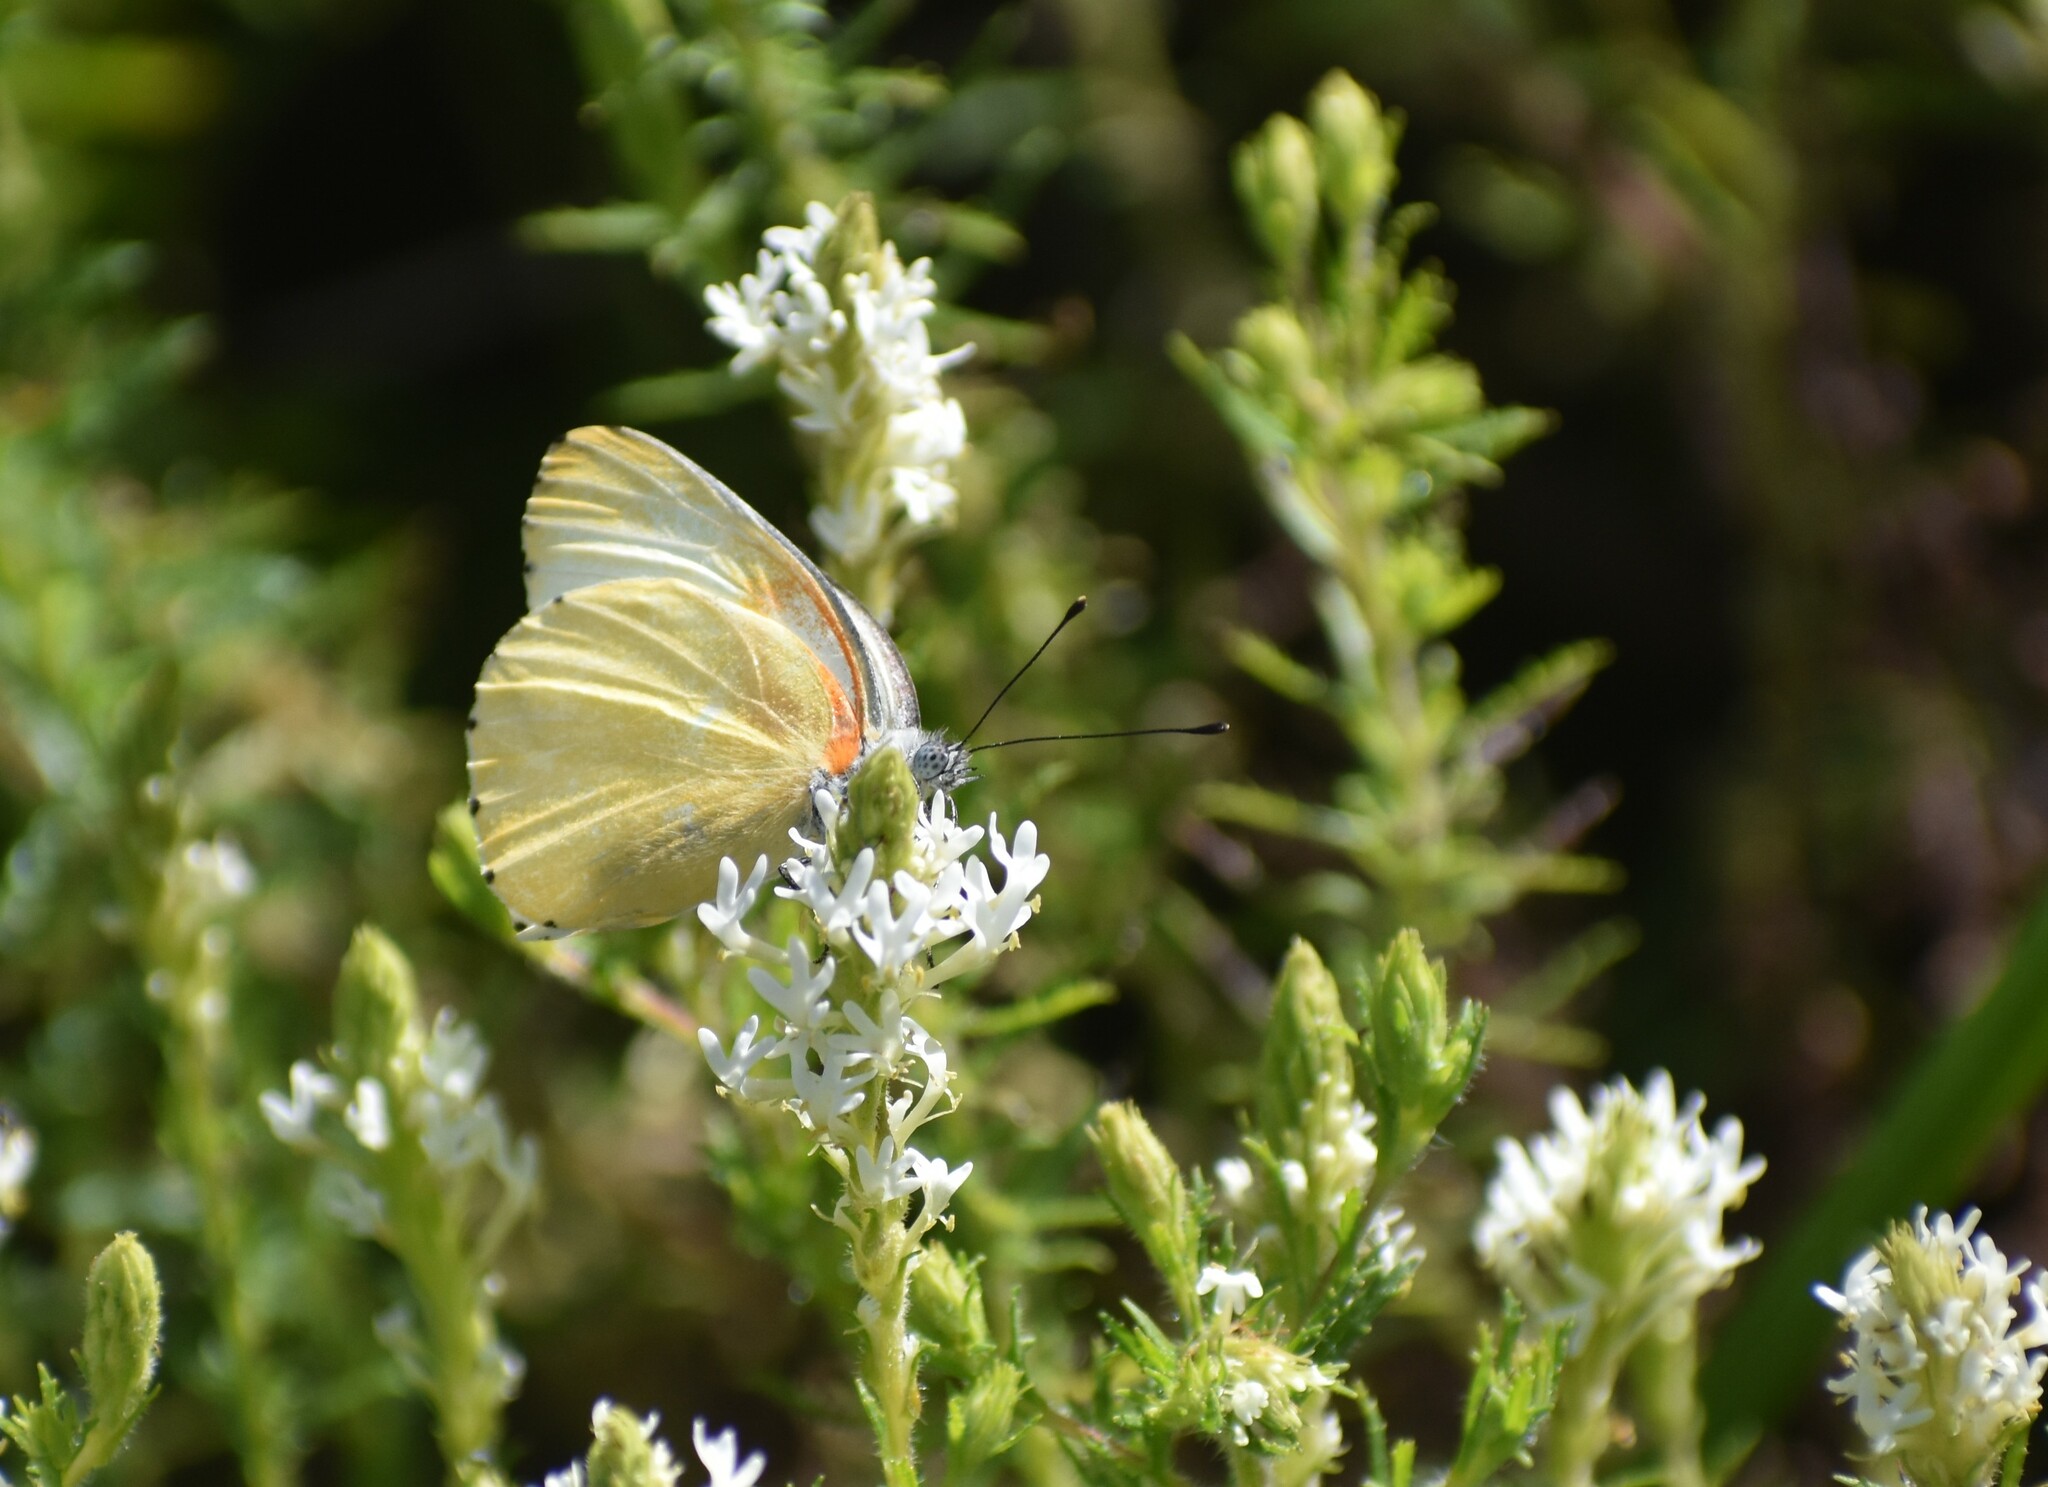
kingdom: Animalia
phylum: Arthropoda
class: Insecta
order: Lepidoptera
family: Pieridae
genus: Mylothris
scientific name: Mylothris agathina
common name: Eastern dotted border
